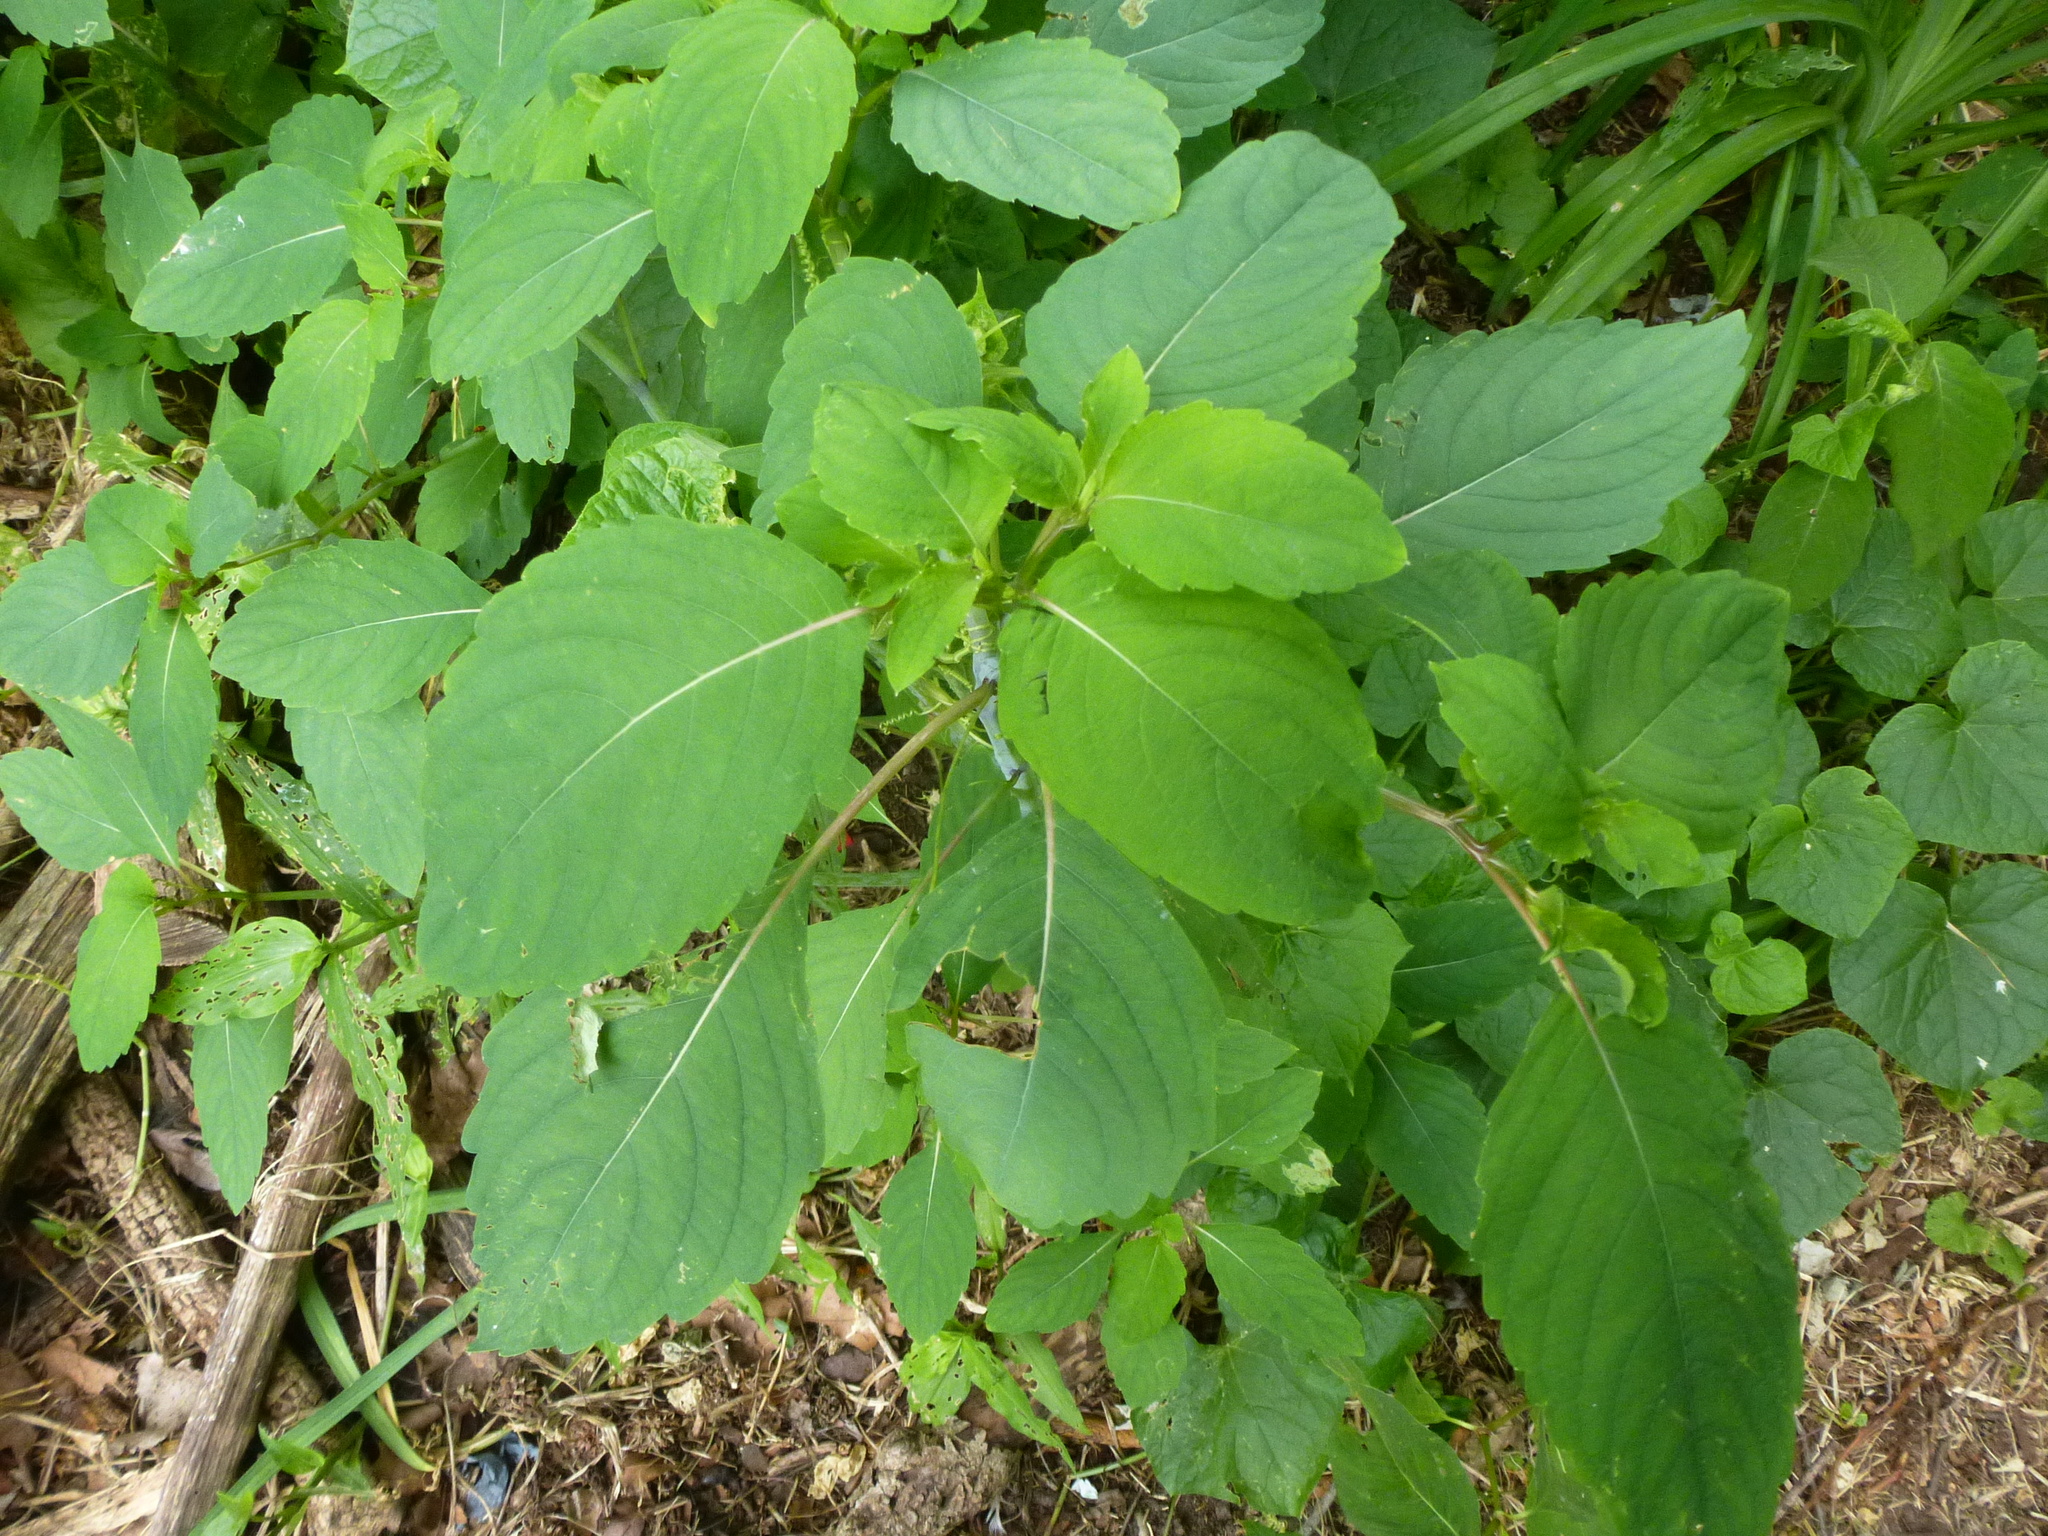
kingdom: Plantae
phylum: Tracheophyta
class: Magnoliopsida
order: Ericales
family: Balsaminaceae
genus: Impatiens
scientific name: Impatiens capensis
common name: Orange balsam
